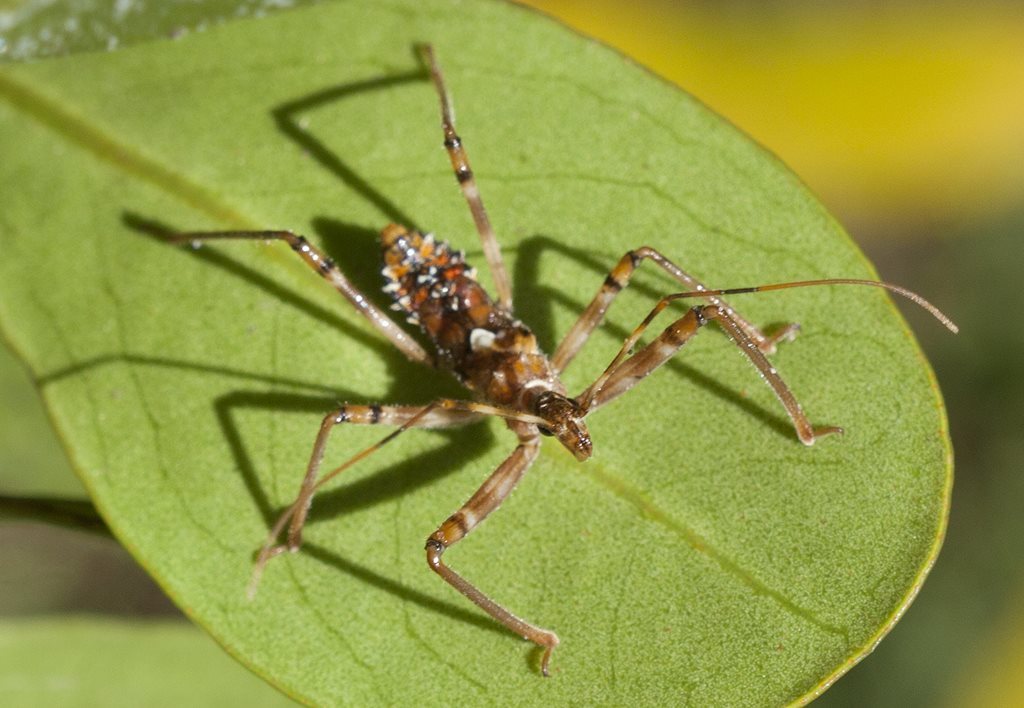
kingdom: Animalia
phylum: Arthropoda
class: Insecta
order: Hemiptera
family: Reduviidae
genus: Pristhesancus
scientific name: Pristhesancus plagipennis
